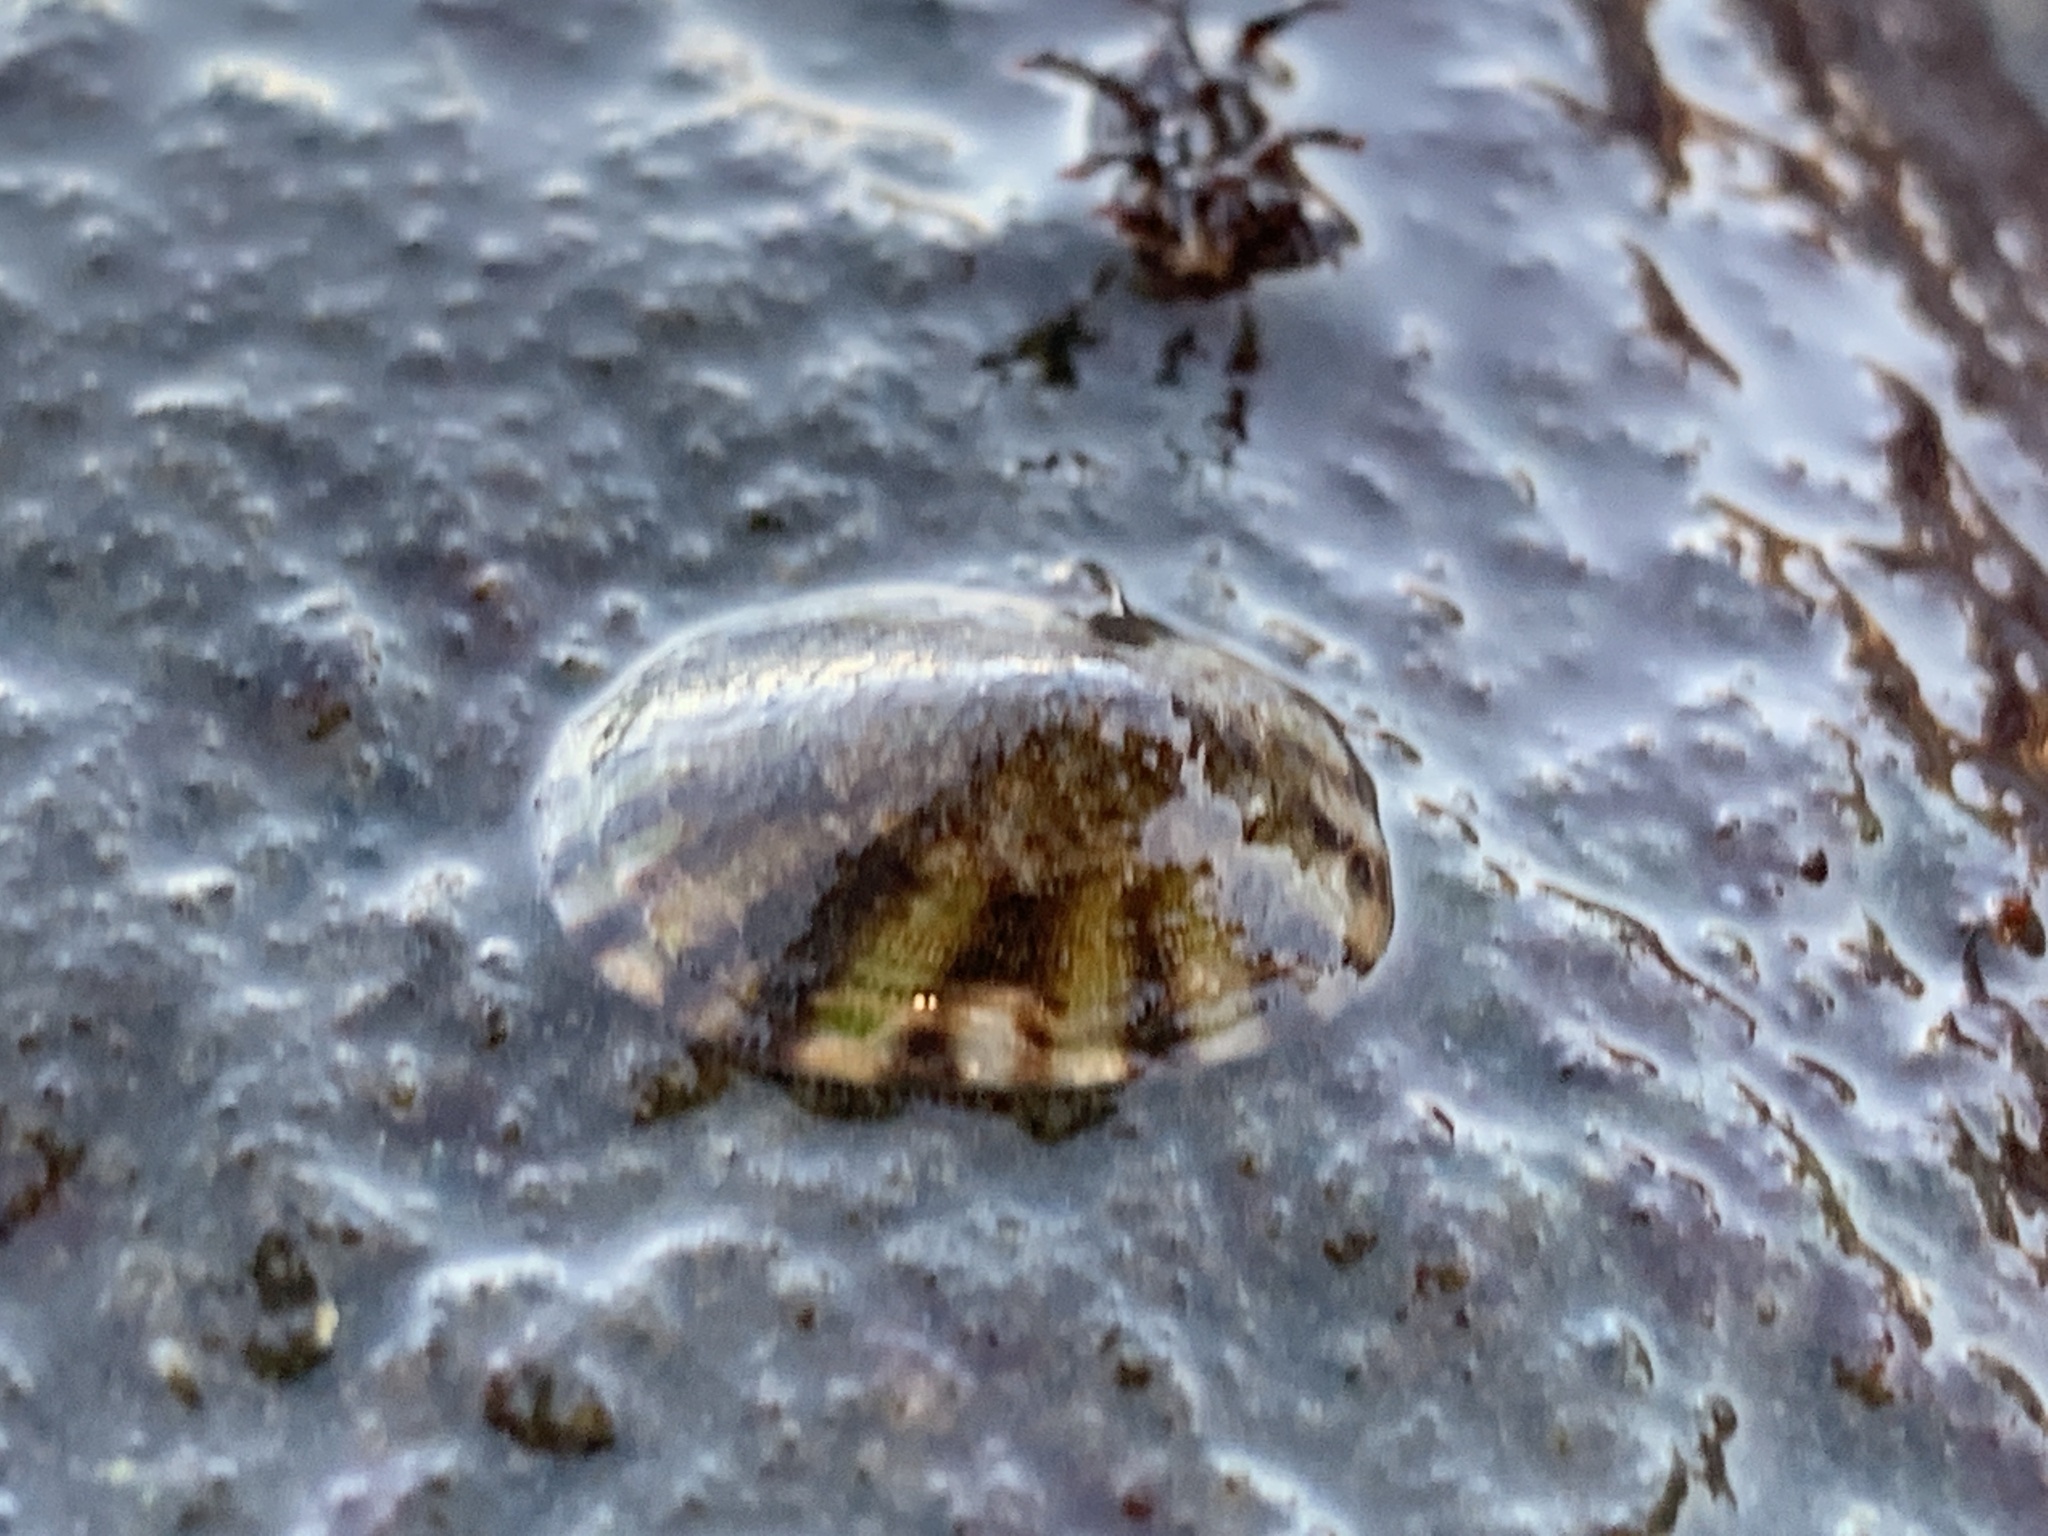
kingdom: Animalia
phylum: Mollusca
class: Gastropoda
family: Lottiidae
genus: Testudinalia
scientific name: Testudinalia testudinalis
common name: Common tortoiseshell limpet
